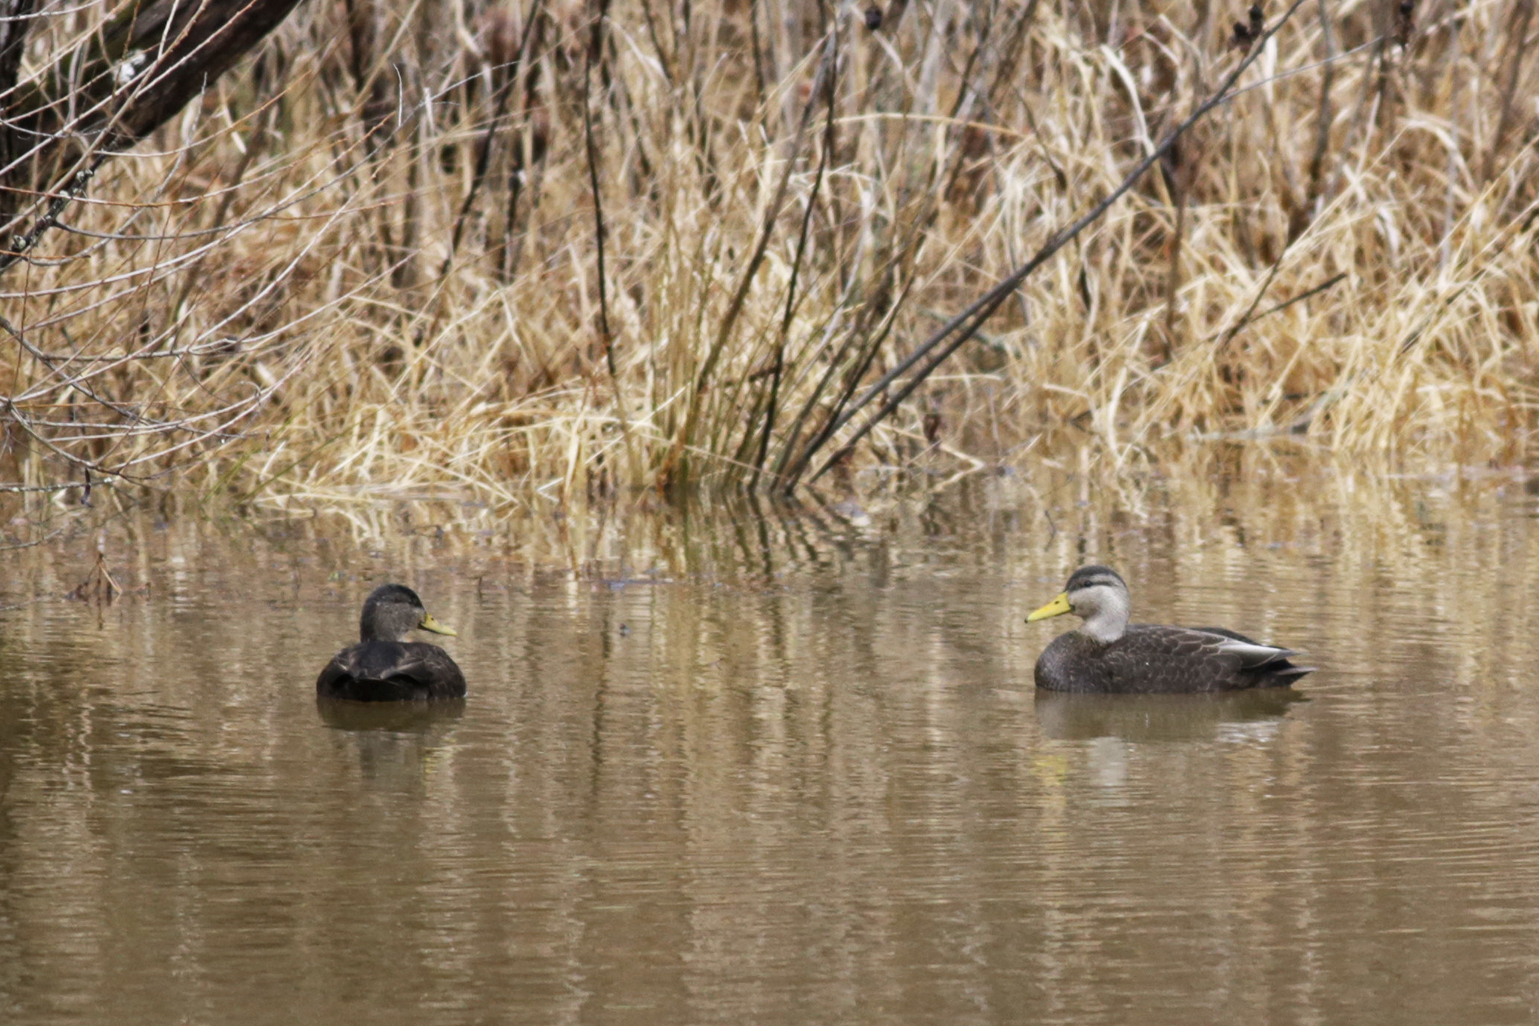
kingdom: Animalia
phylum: Chordata
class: Aves
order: Anseriformes
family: Anatidae
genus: Anas
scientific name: Anas rubripes
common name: American black duck
